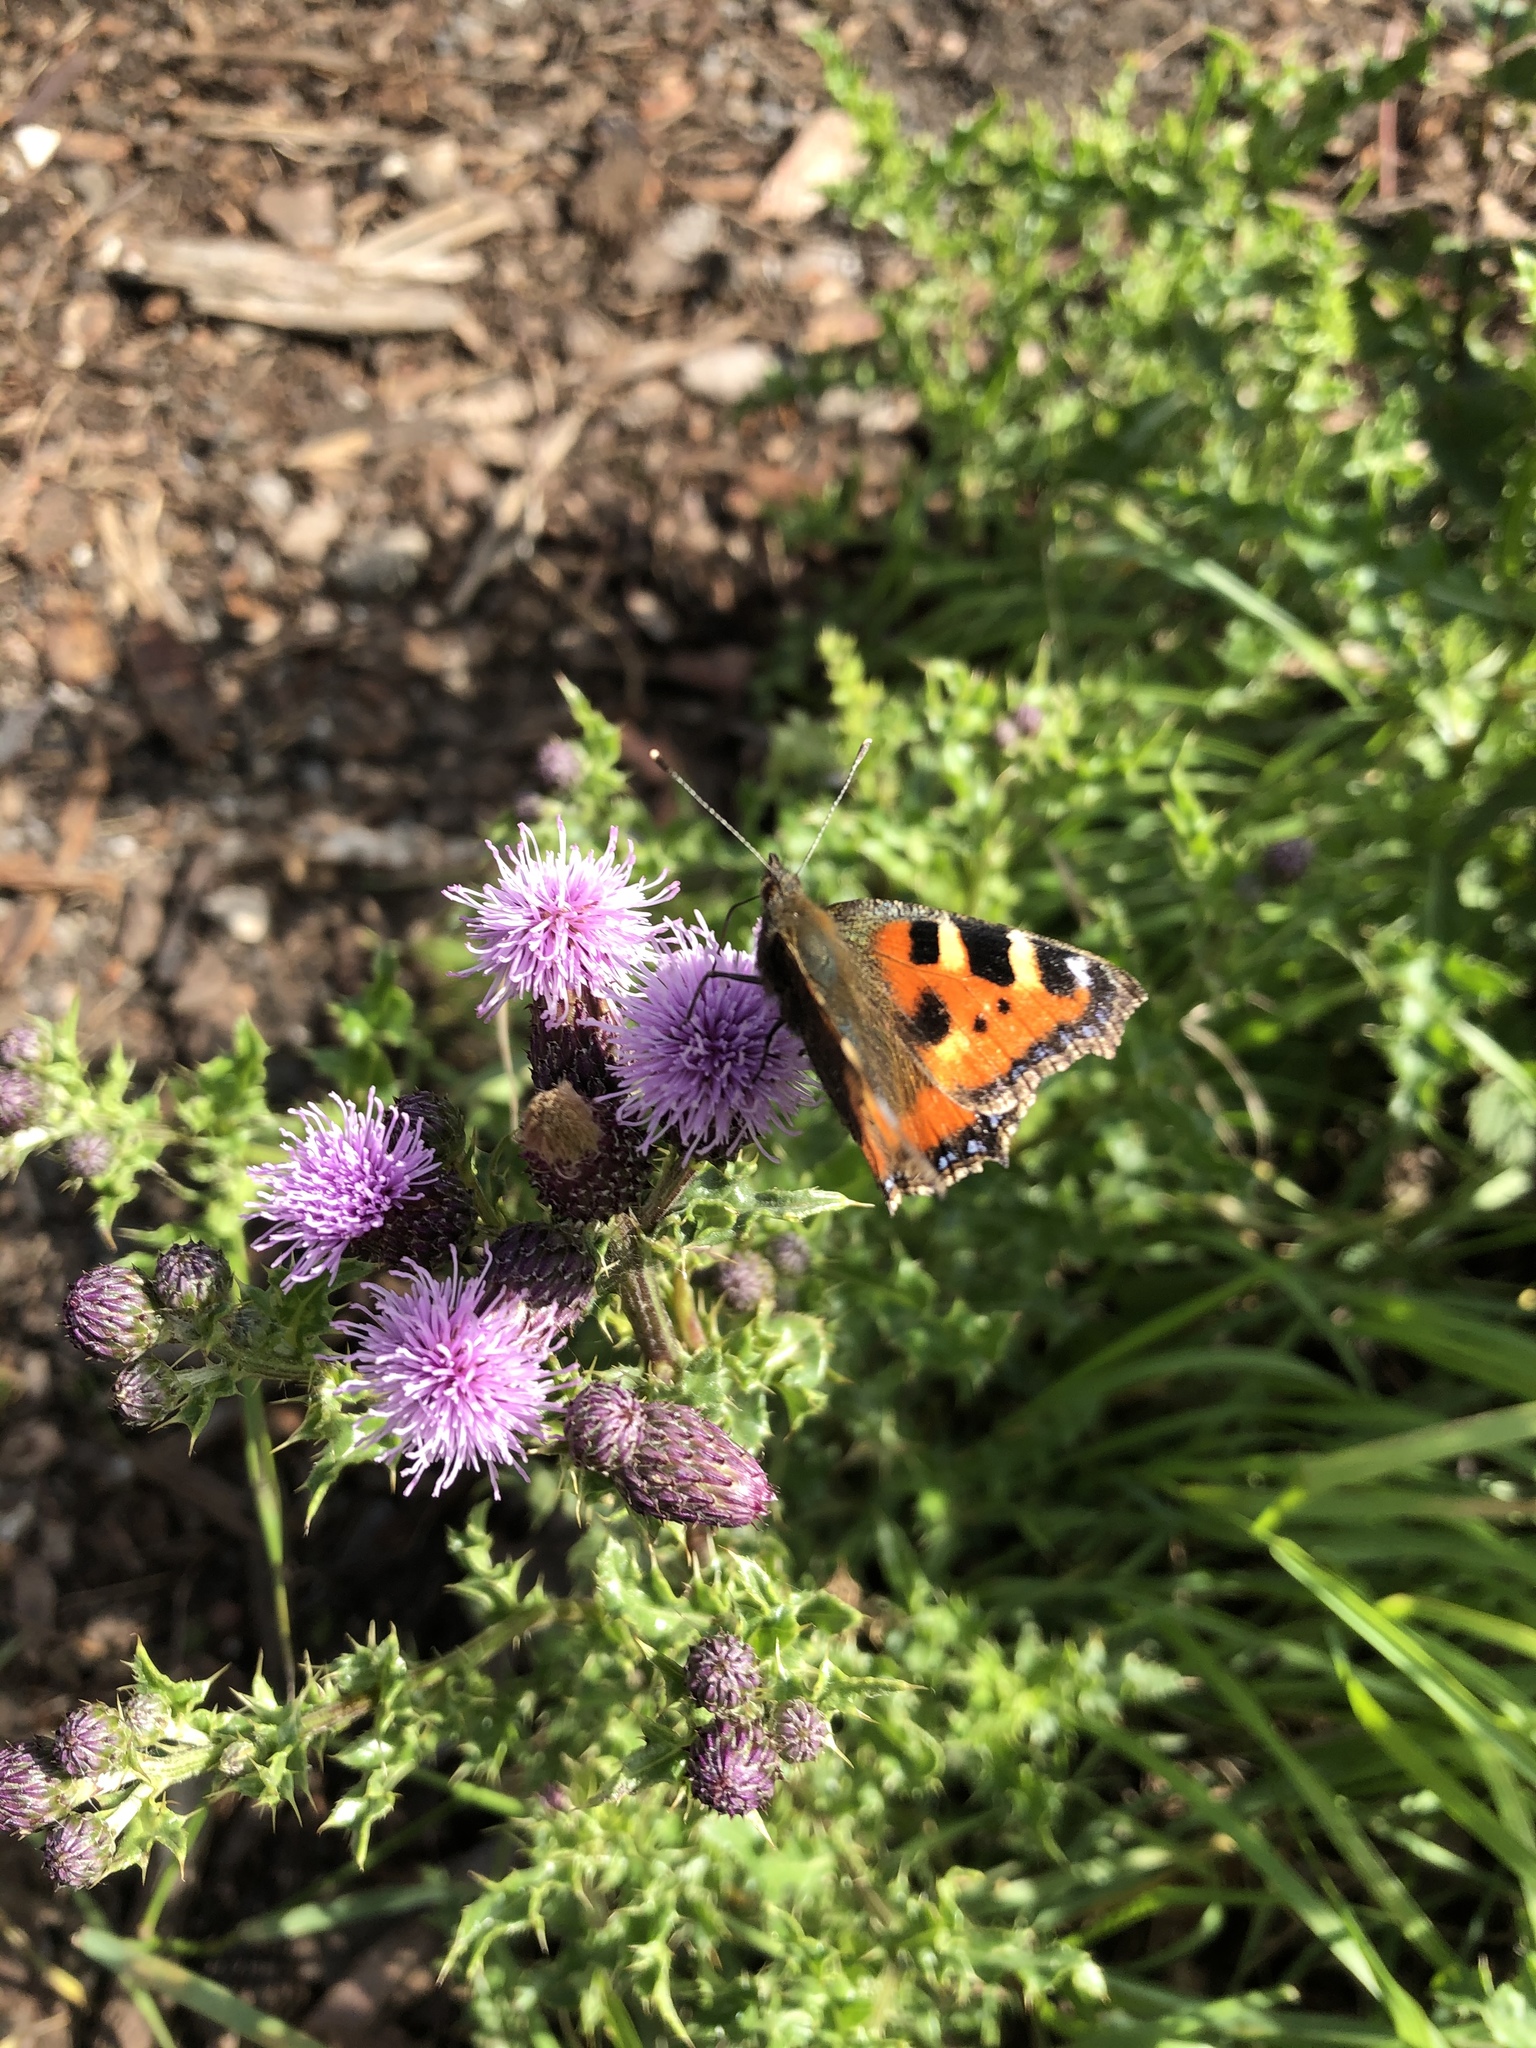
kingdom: Animalia
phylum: Arthropoda
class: Insecta
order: Lepidoptera
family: Nymphalidae
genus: Aglais
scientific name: Aglais urticae
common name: Small tortoiseshell
